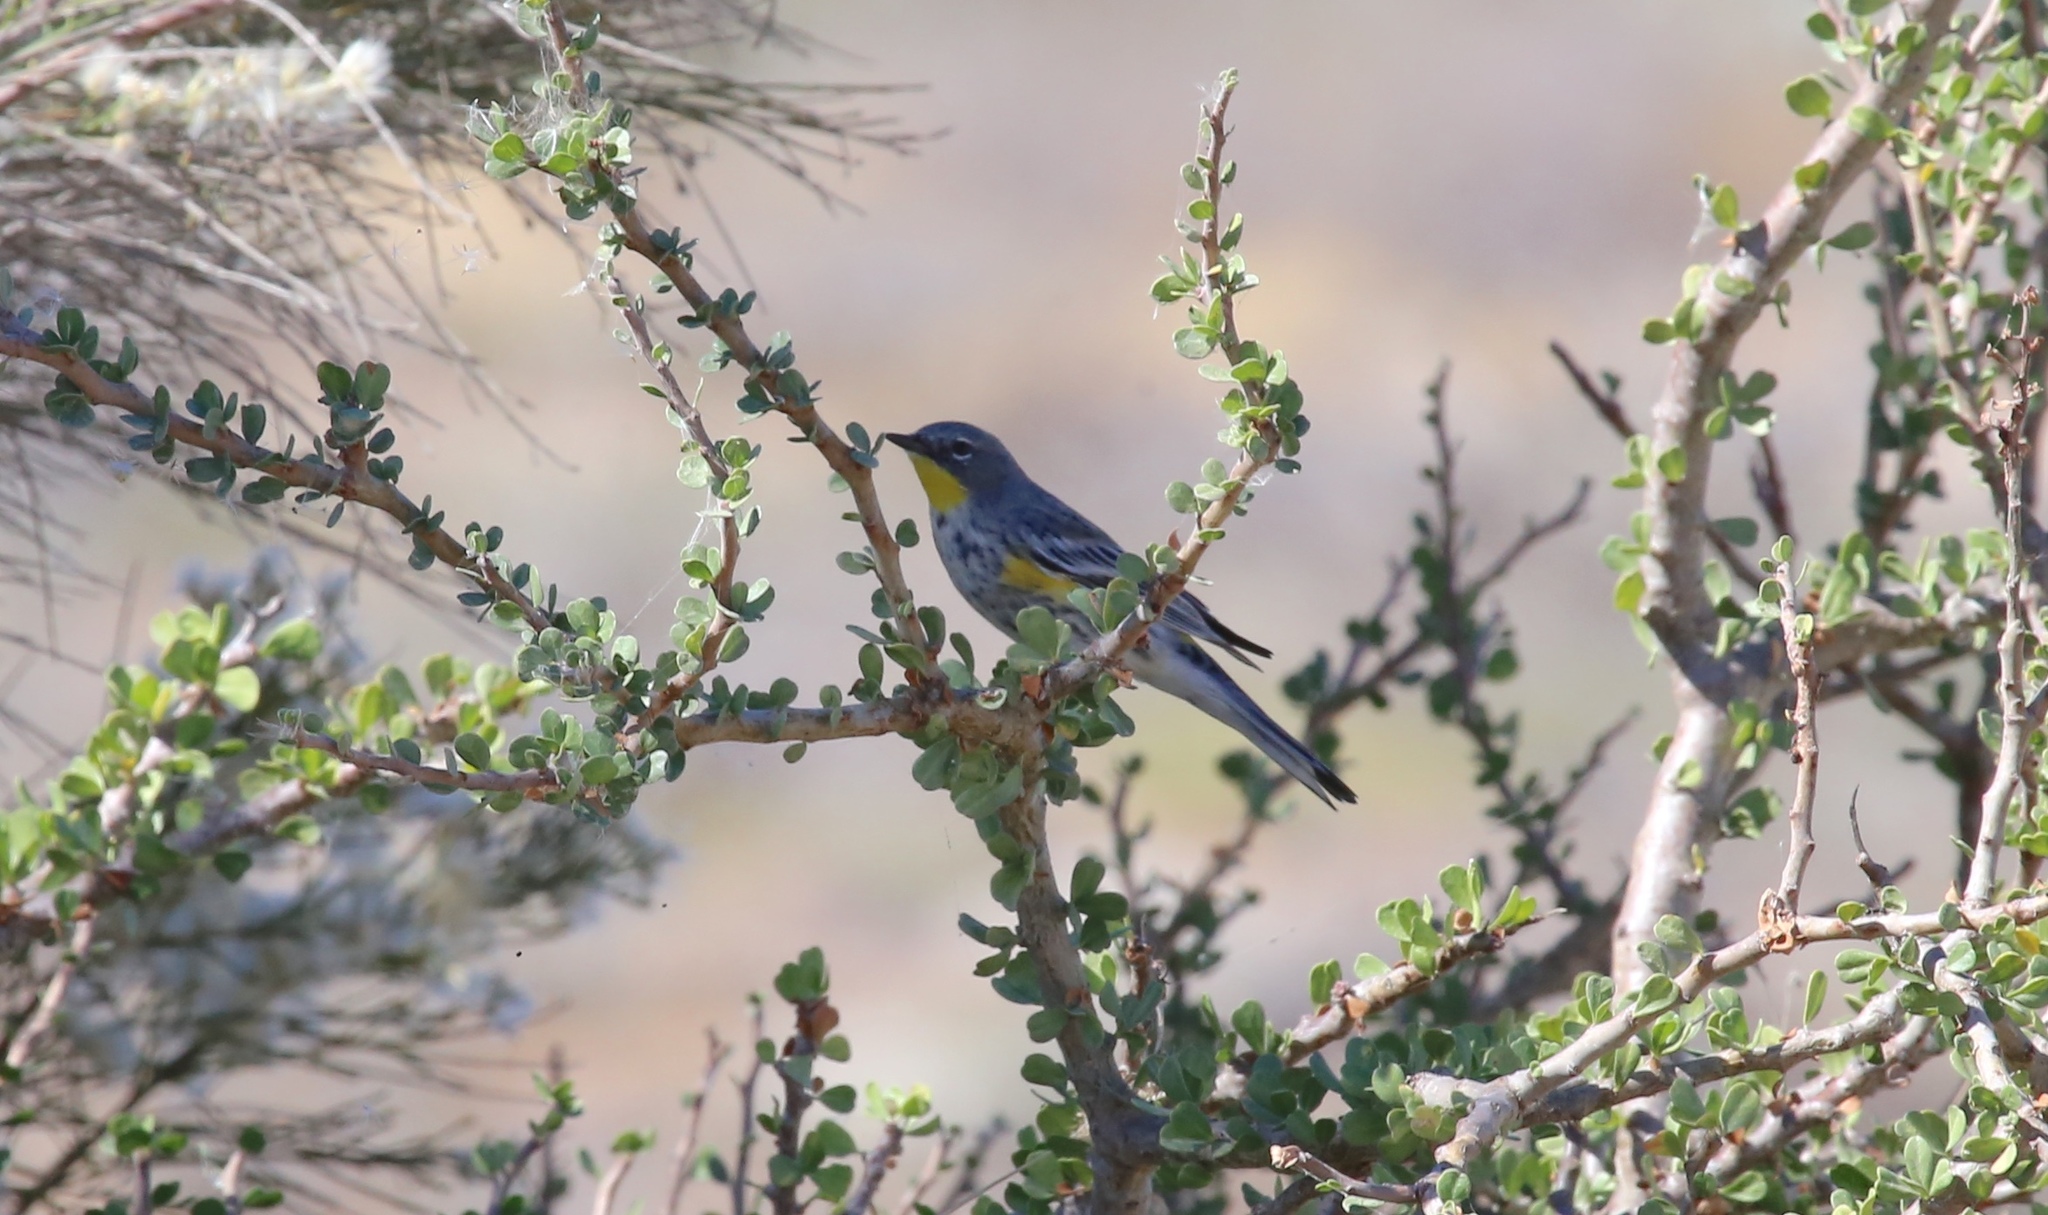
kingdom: Animalia
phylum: Chordata
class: Aves
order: Passeriformes
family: Parulidae
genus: Setophaga
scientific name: Setophaga coronata
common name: Myrtle warbler
